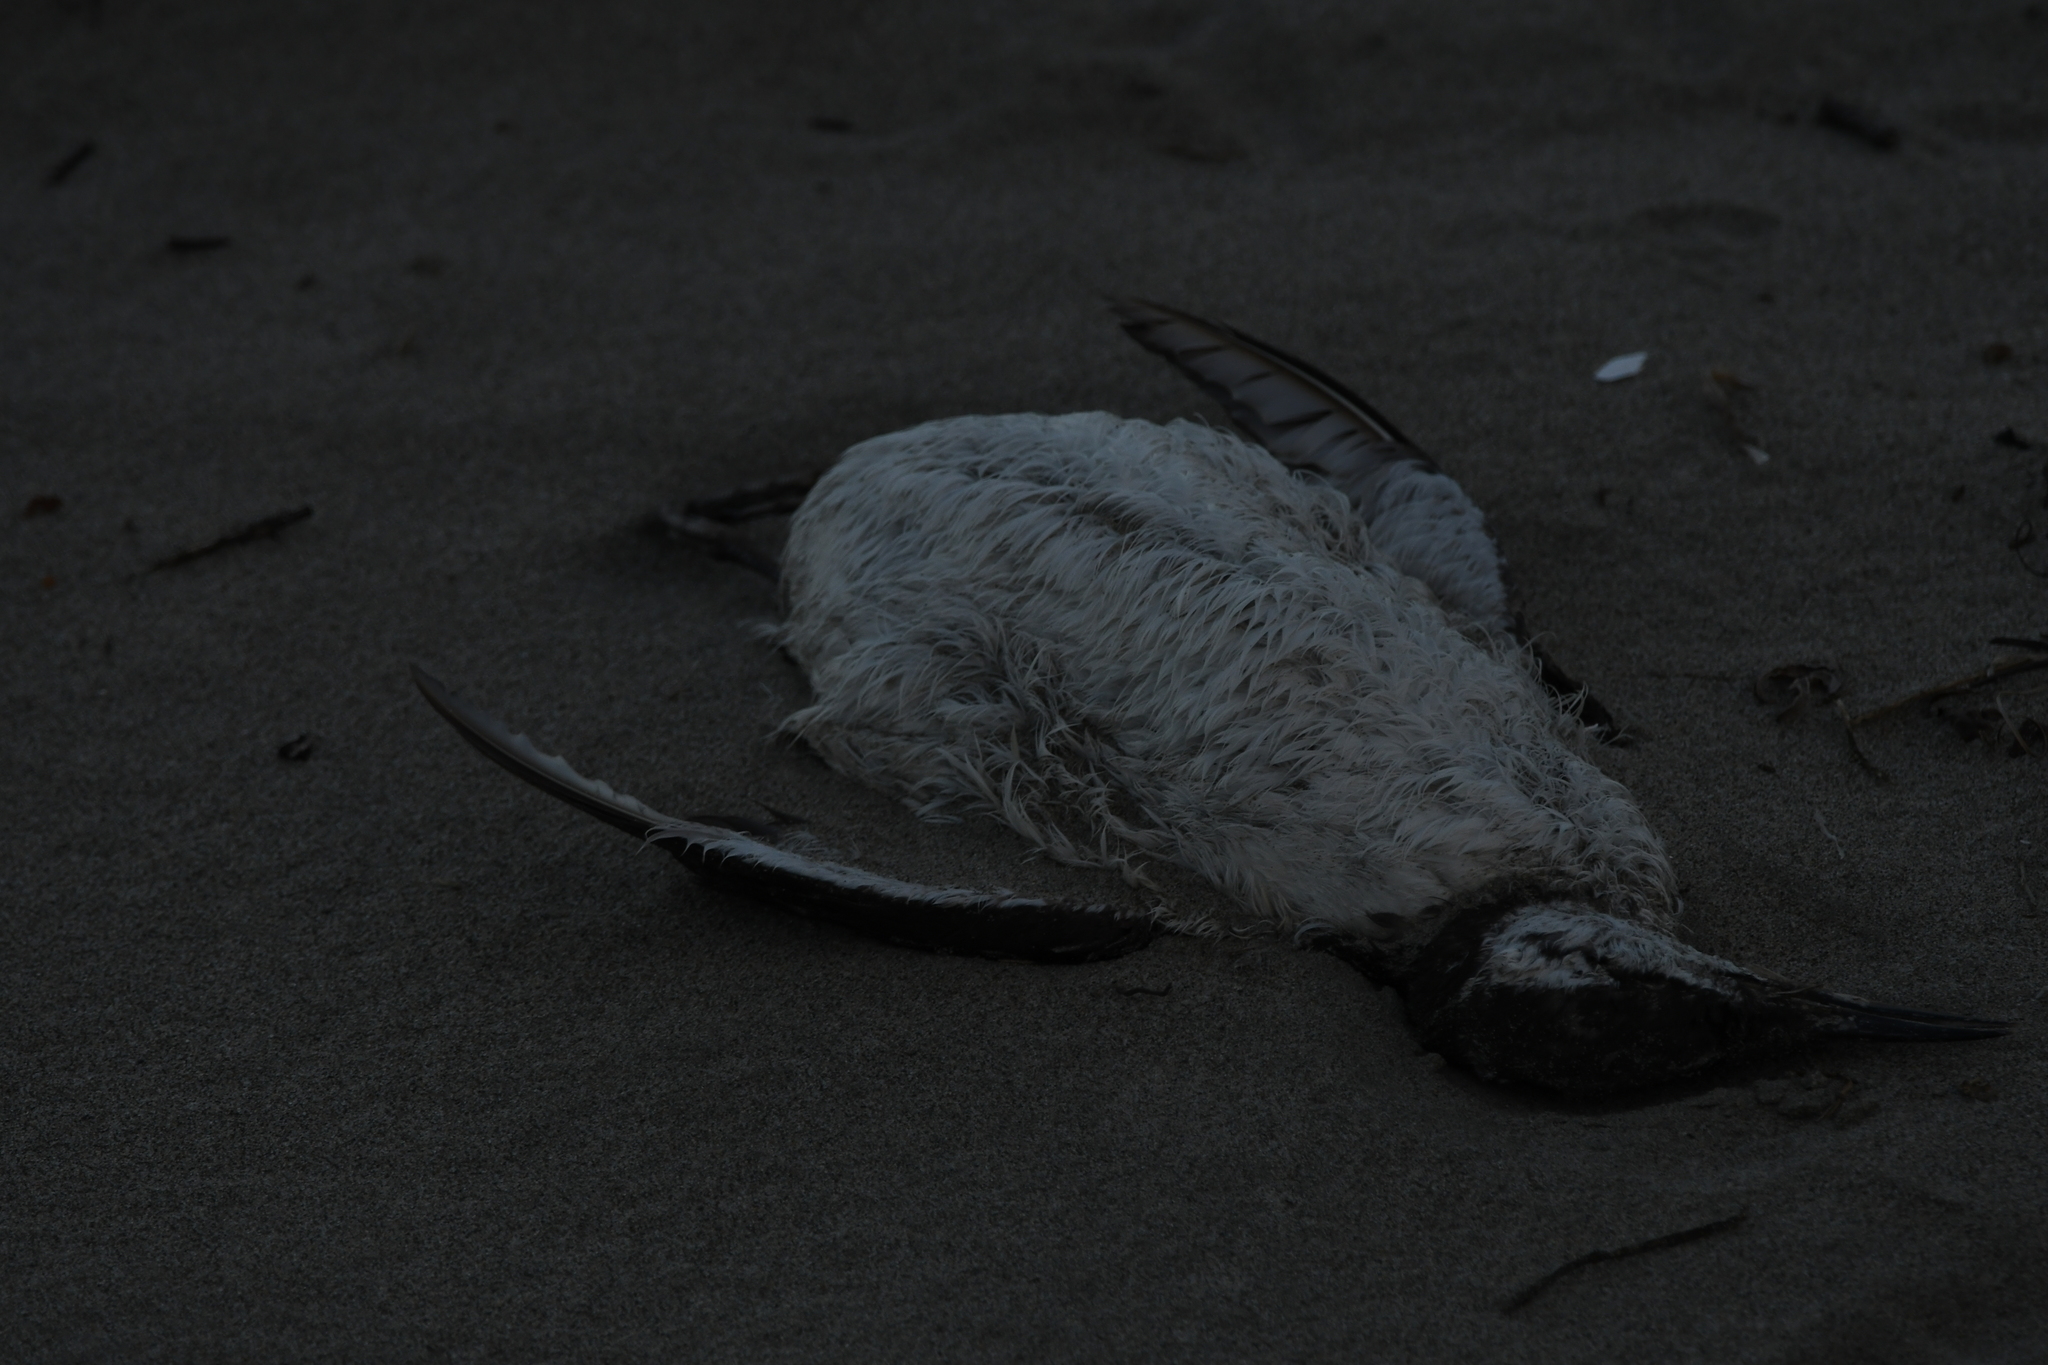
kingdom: Animalia
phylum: Chordata
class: Aves
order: Charadriiformes
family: Alcidae
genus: Uria
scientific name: Uria aalge
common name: Common murre
